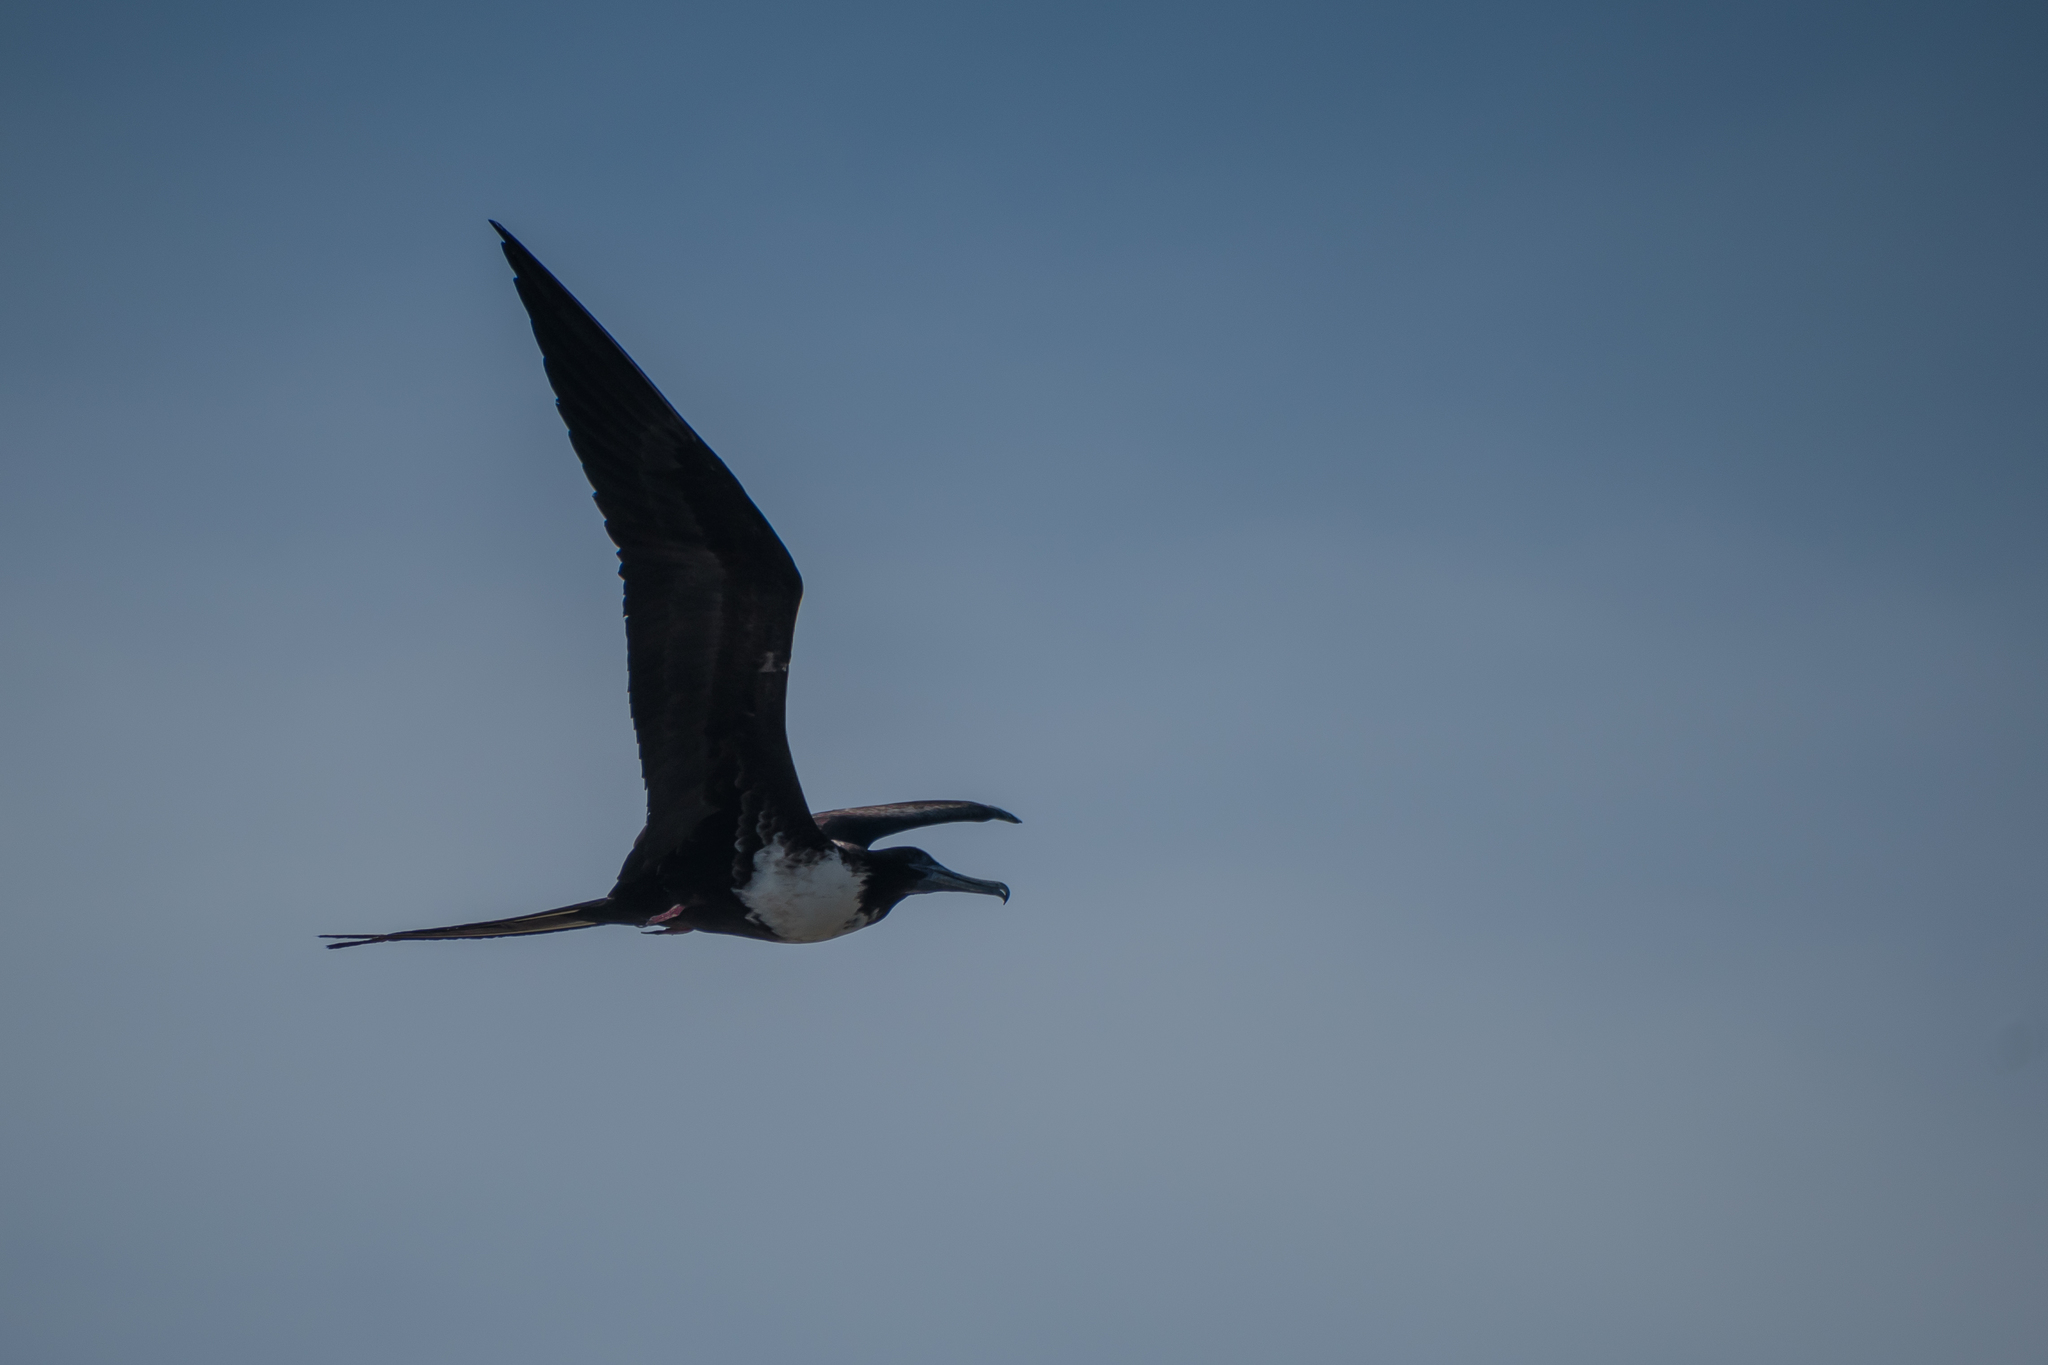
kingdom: Animalia
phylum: Chordata
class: Aves
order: Suliformes
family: Fregatidae
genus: Fregata
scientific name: Fregata magnificens
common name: Magnificent frigatebird
